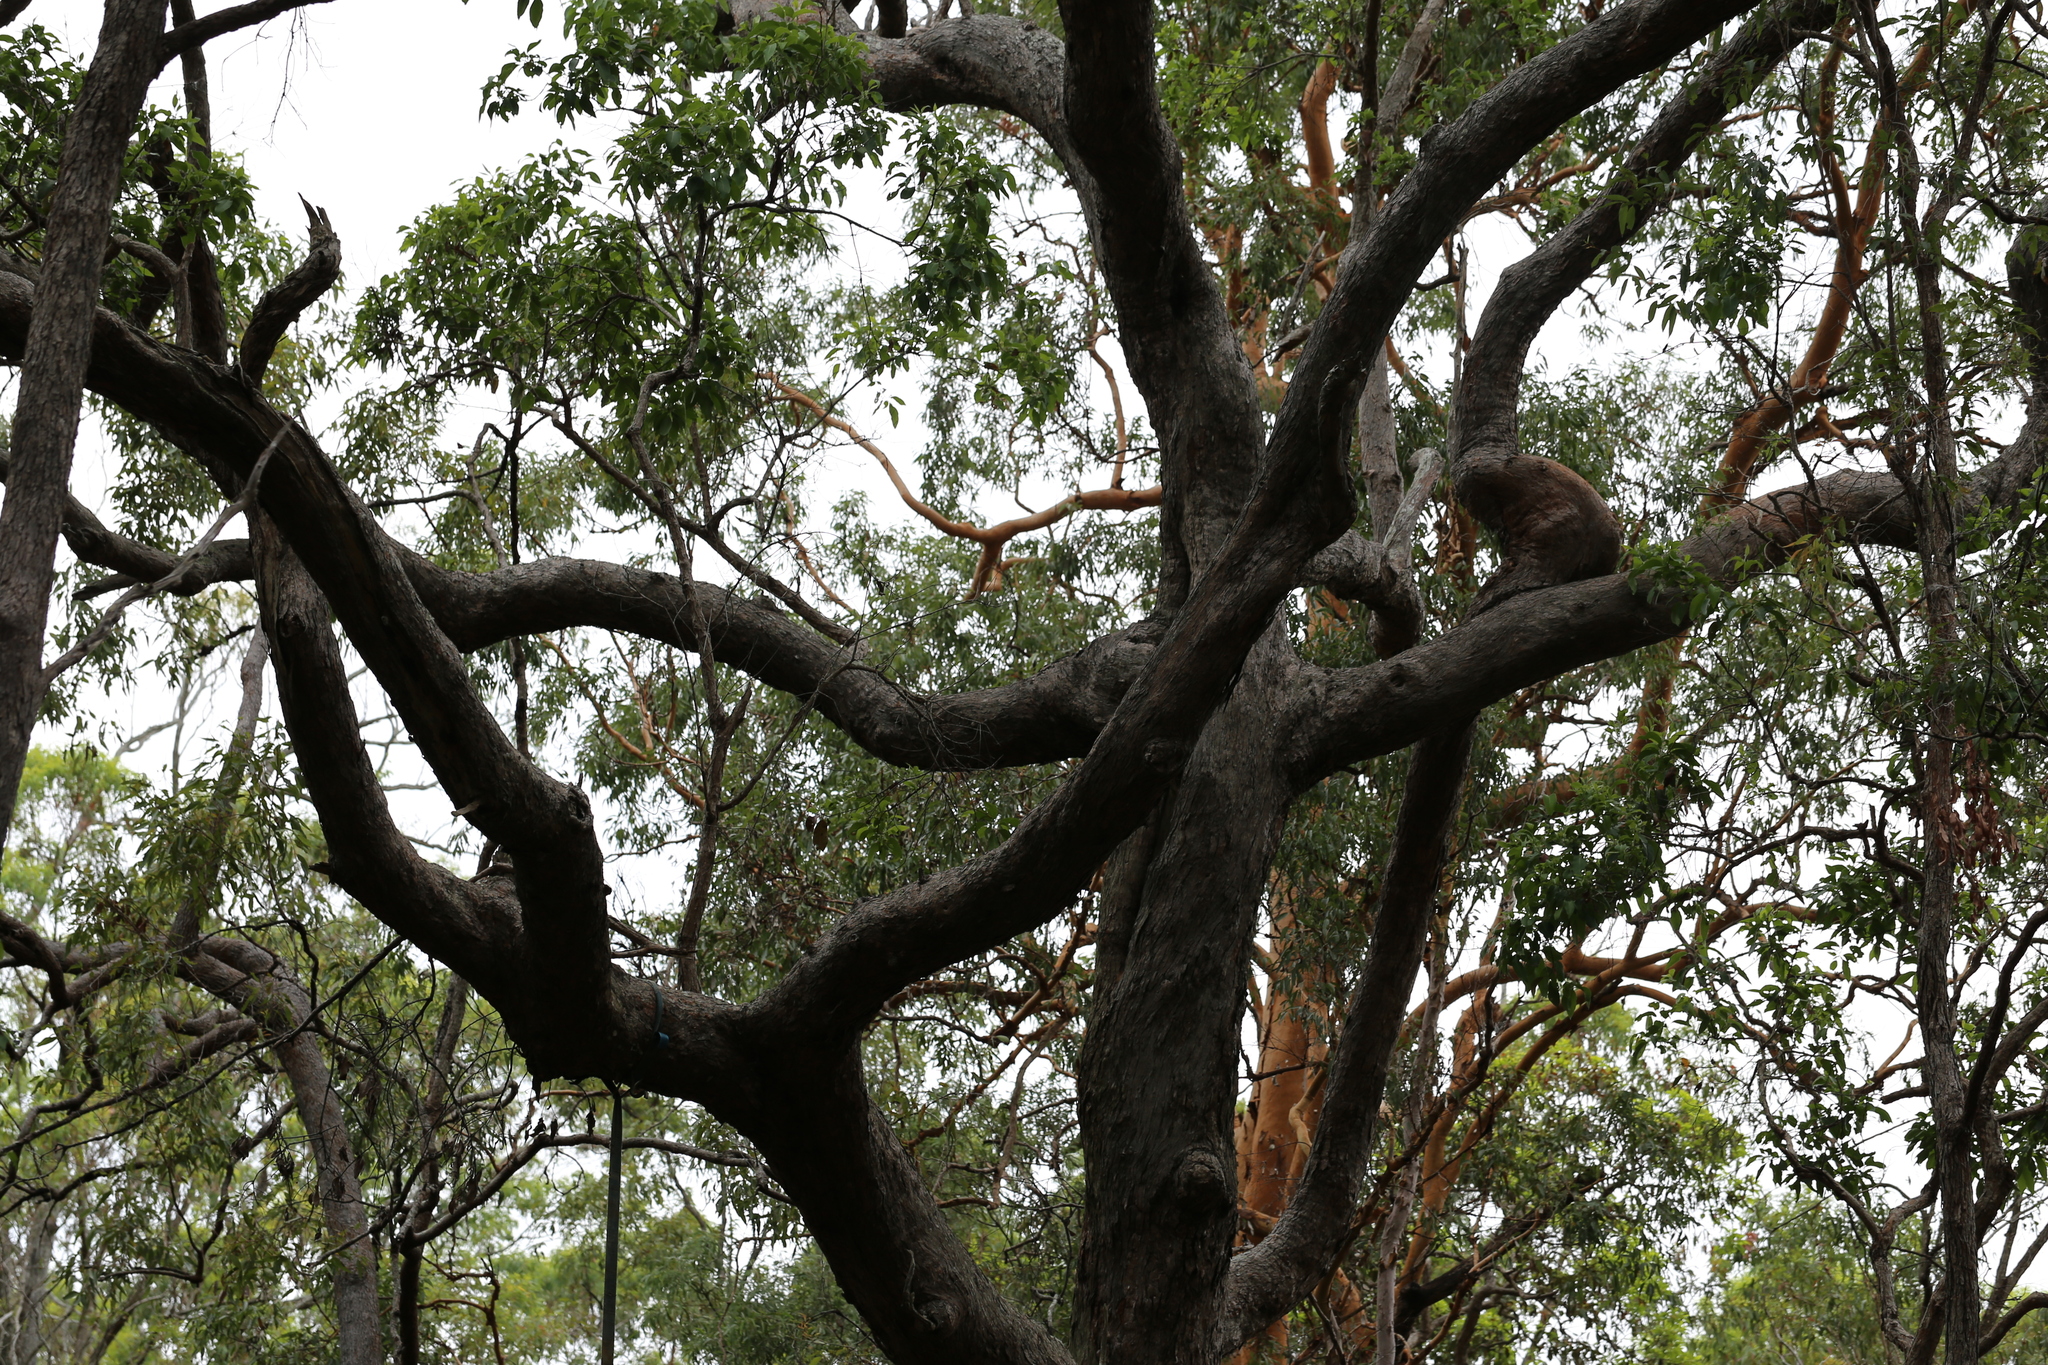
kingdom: Plantae
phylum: Tracheophyta
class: Magnoliopsida
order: Myrtales
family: Myrtaceae
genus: Lophostemon
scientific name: Lophostemon suaveolens
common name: Paperbark-mahogany
